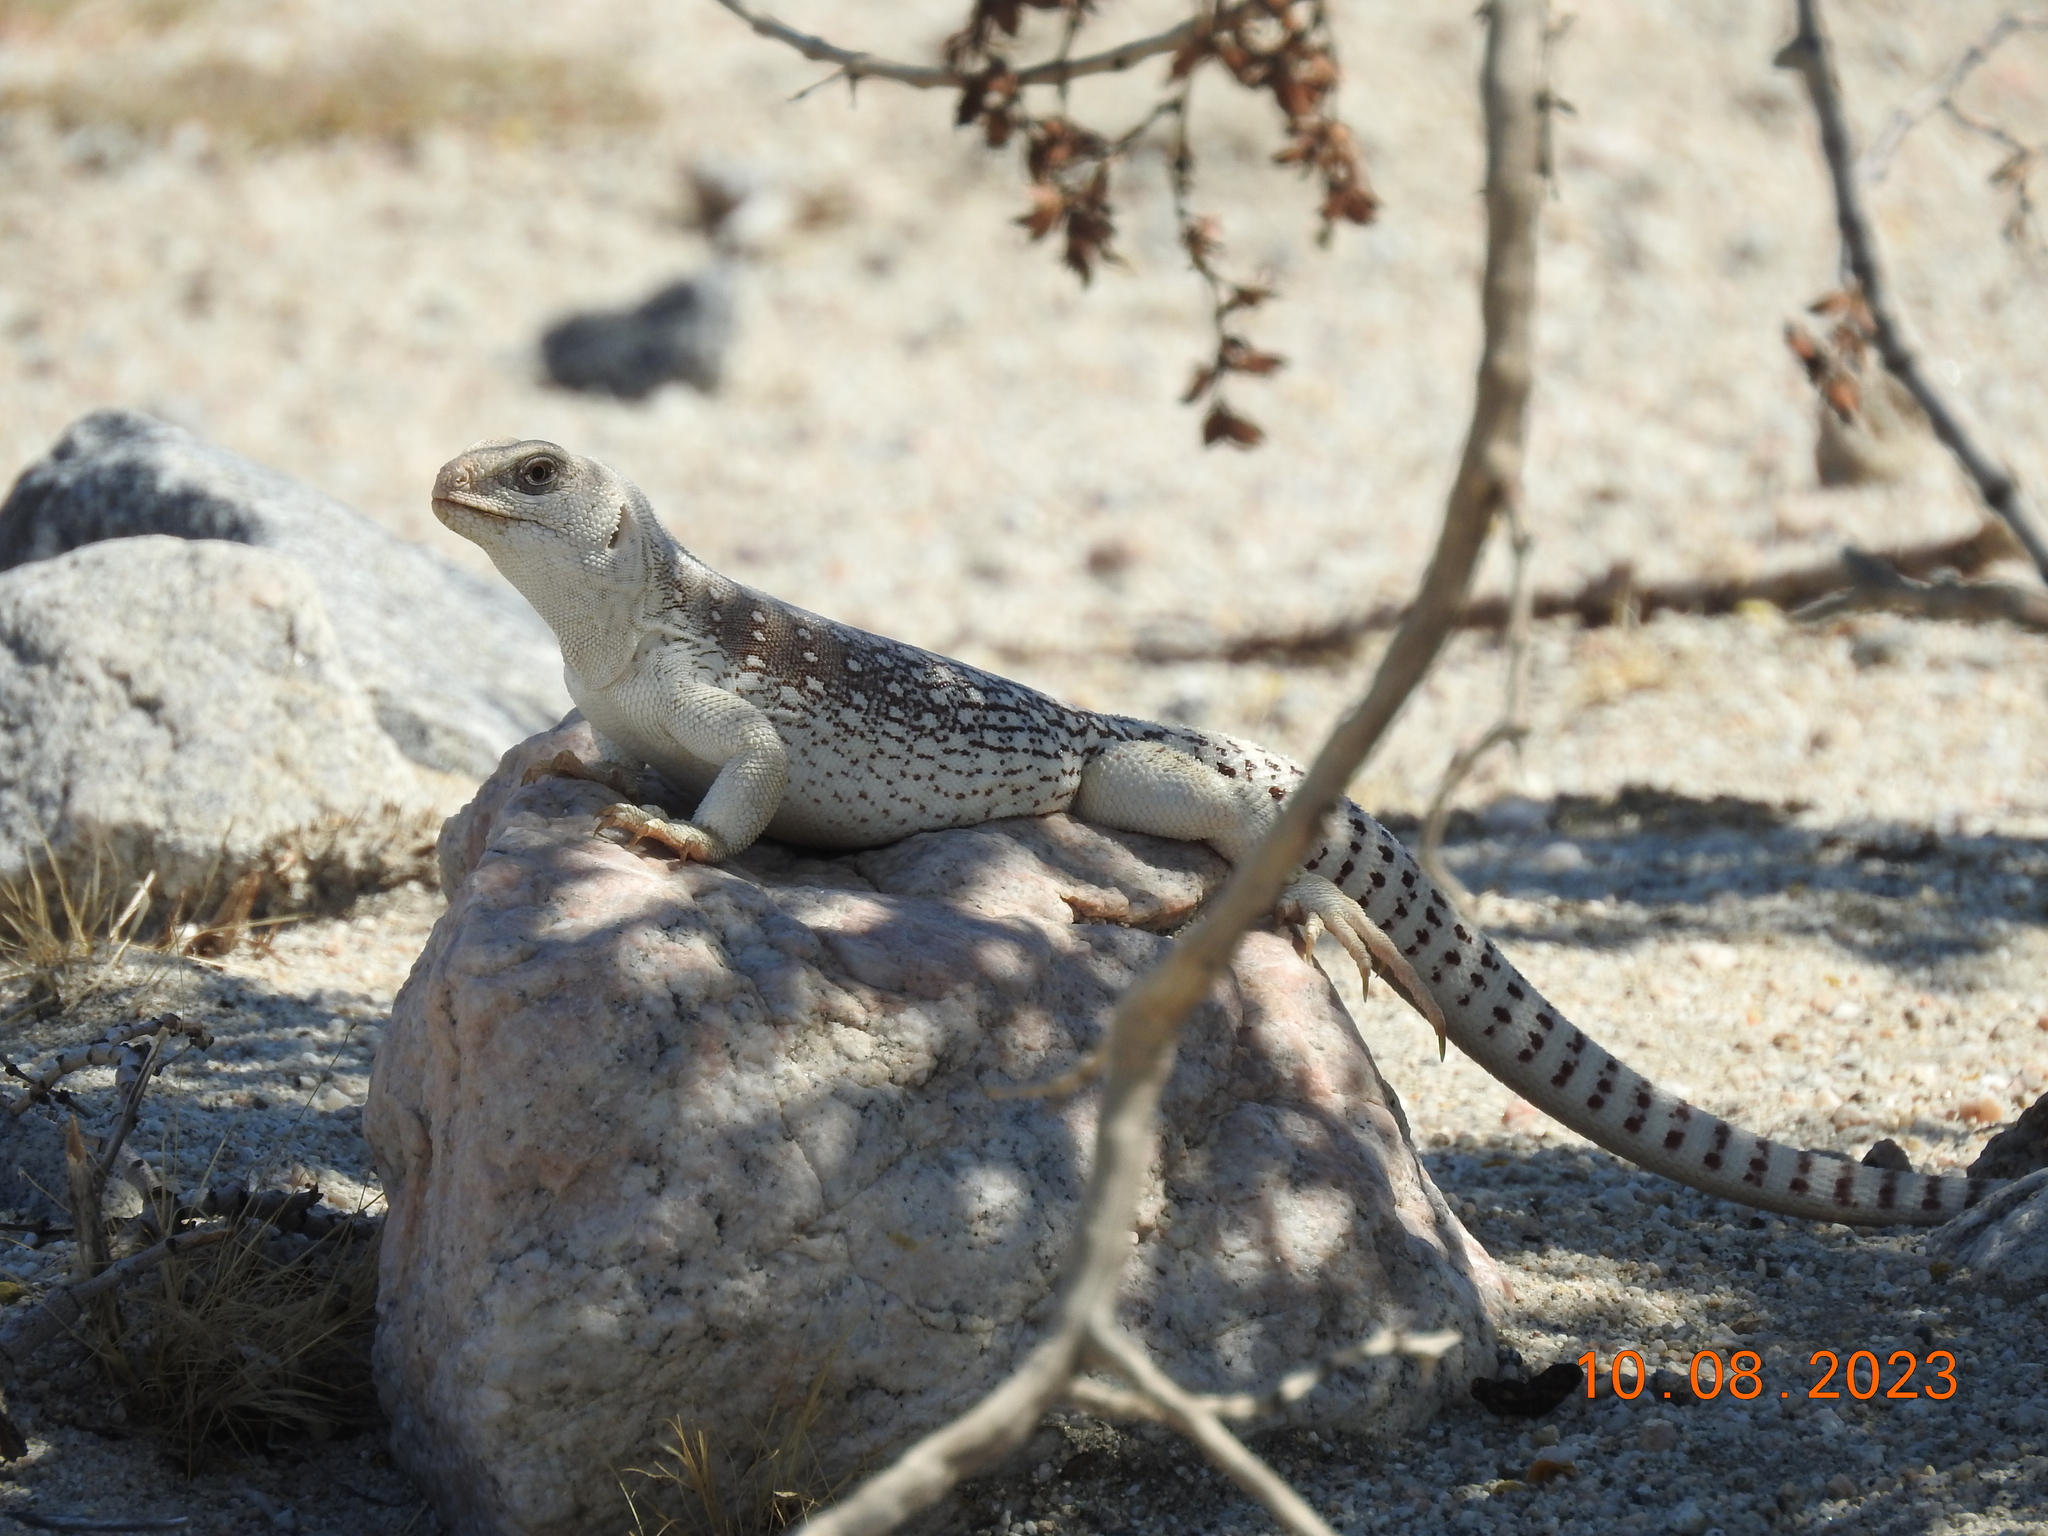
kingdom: Animalia
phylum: Chordata
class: Squamata
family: Iguanidae
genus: Dipsosaurus
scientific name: Dipsosaurus dorsalis
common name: Desert iguana
